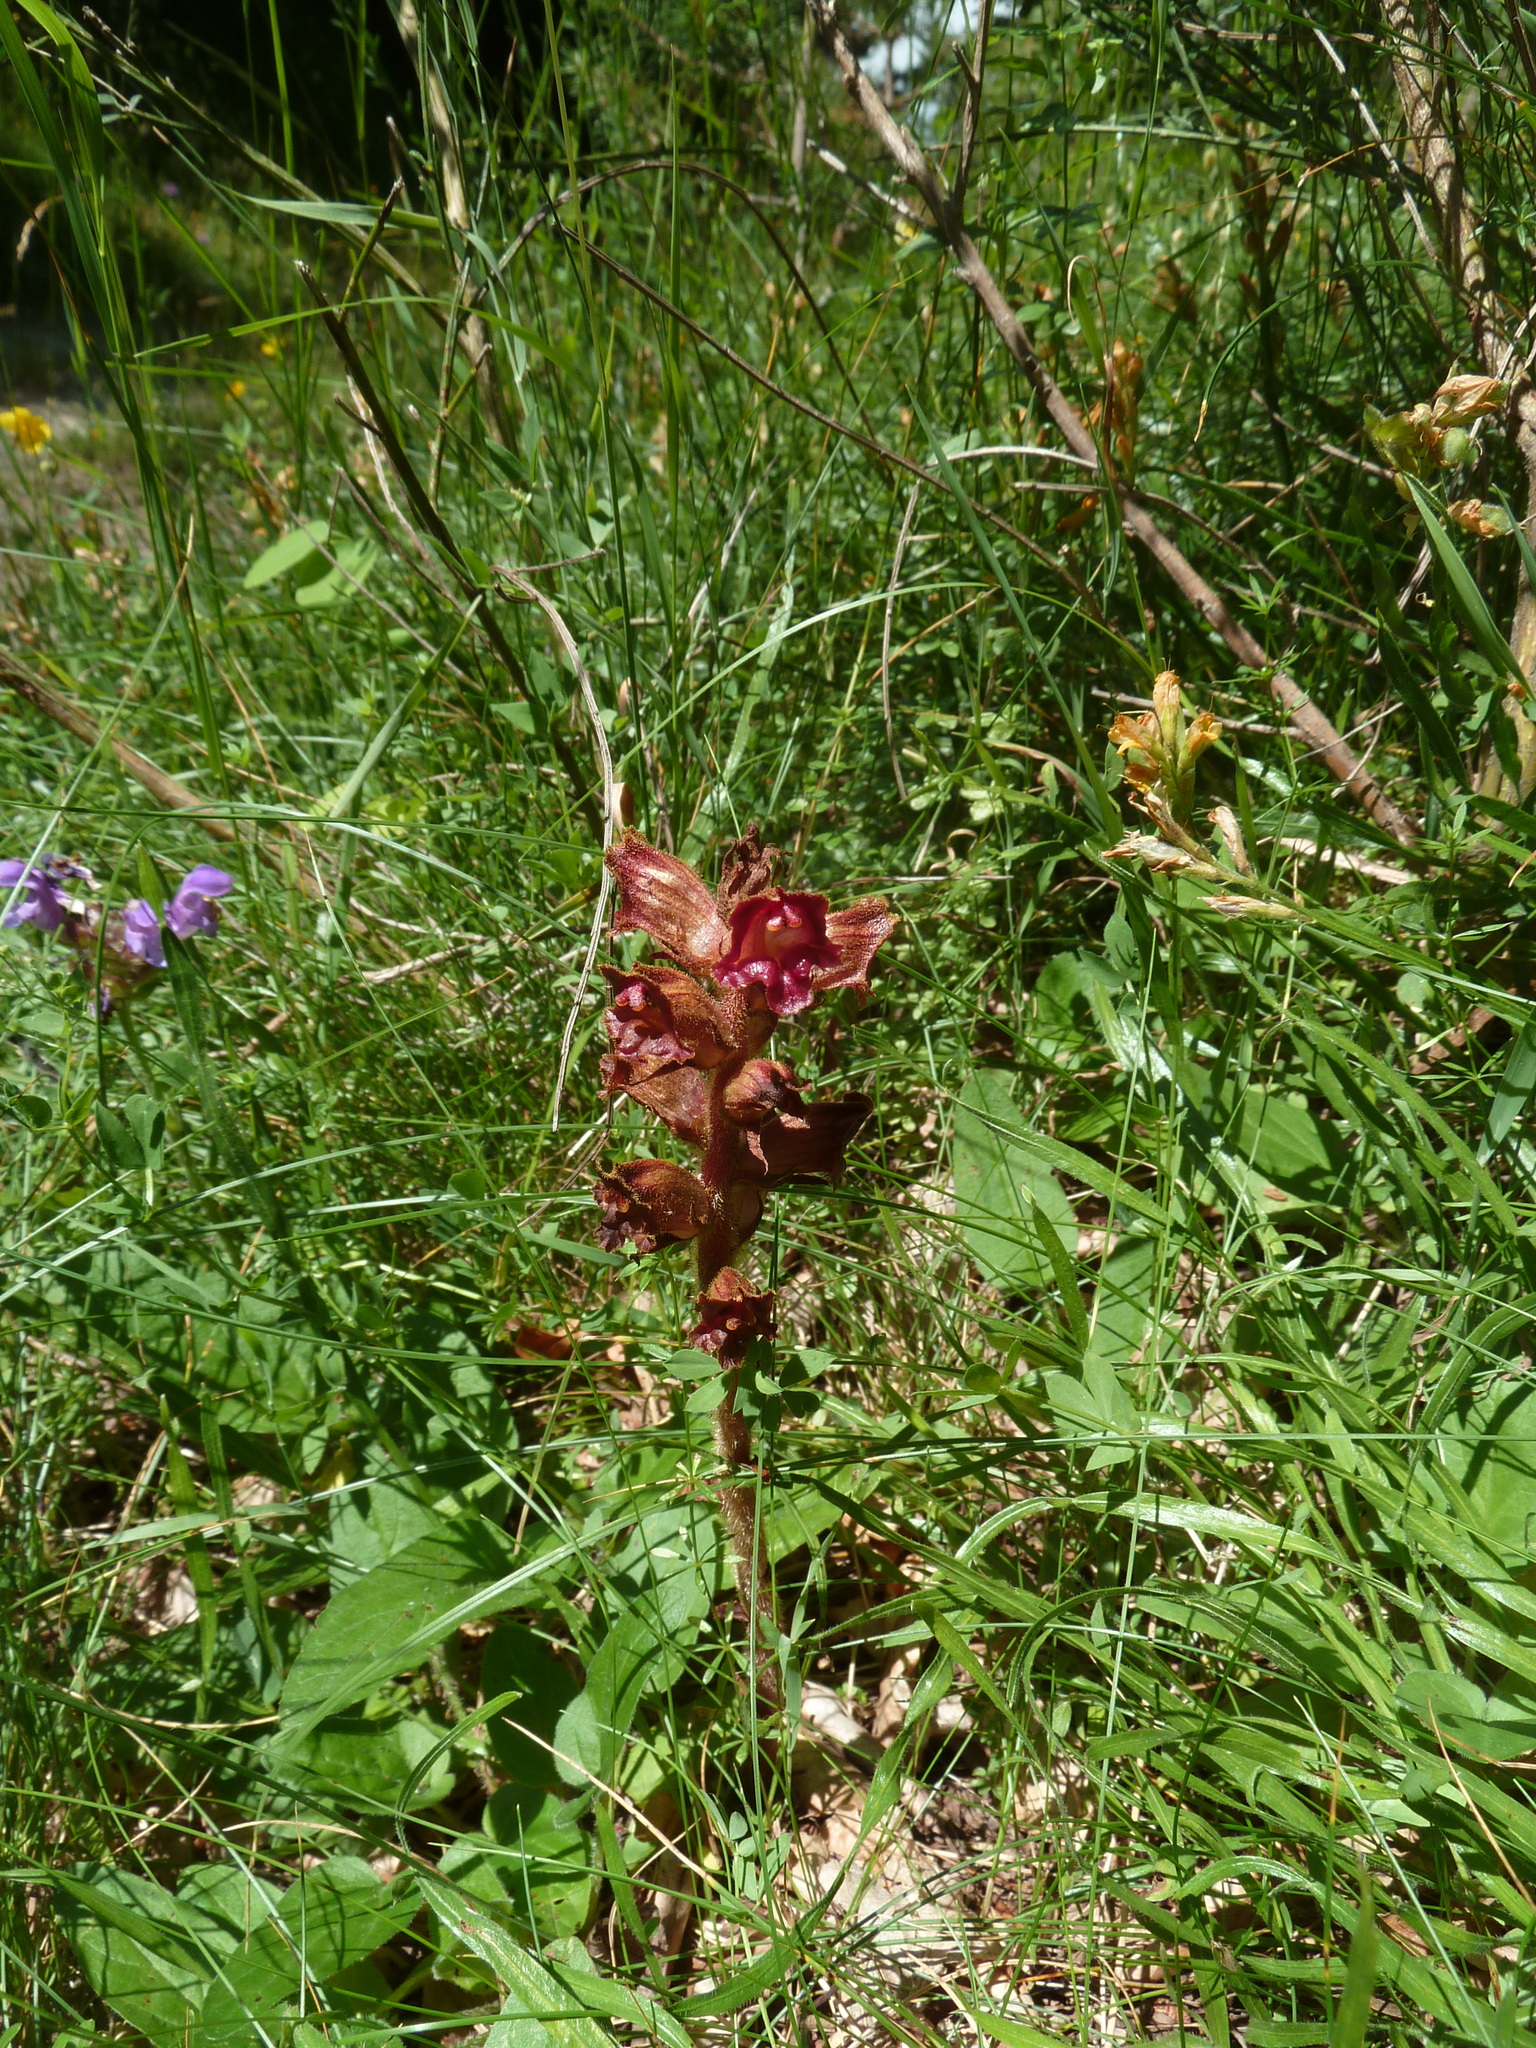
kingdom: Plantae
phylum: Tracheophyta
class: Magnoliopsida
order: Lamiales
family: Orobanchaceae
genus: Orobanche
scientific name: Orobanche gracilis
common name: Slender broomrape
